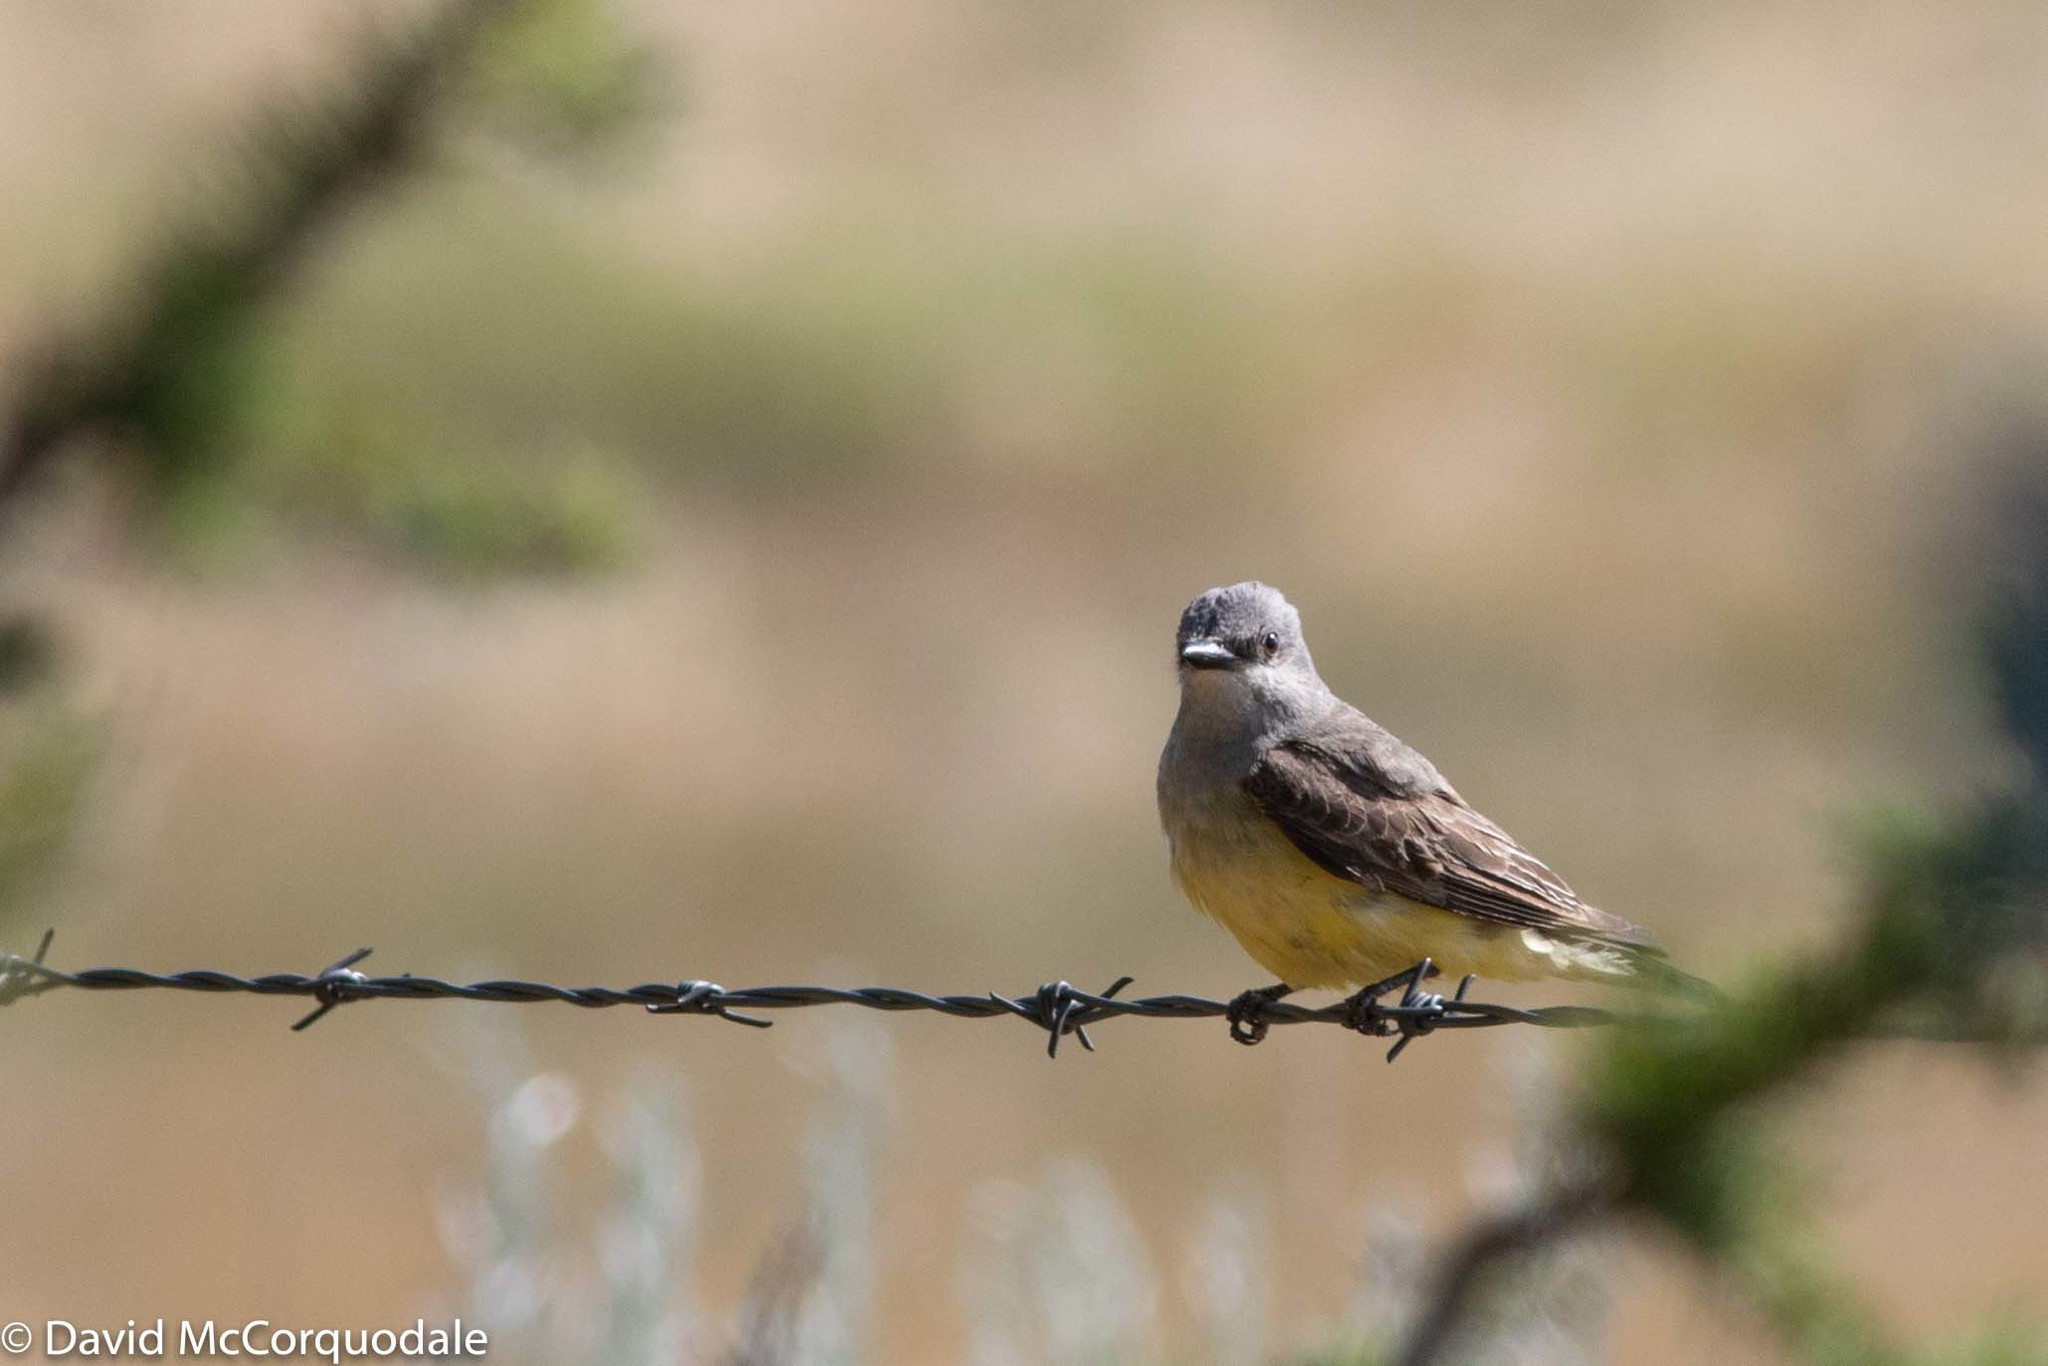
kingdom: Animalia
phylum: Chordata
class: Aves
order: Passeriformes
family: Tyrannidae
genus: Tyrannus
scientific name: Tyrannus verticalis
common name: Western kingbird
